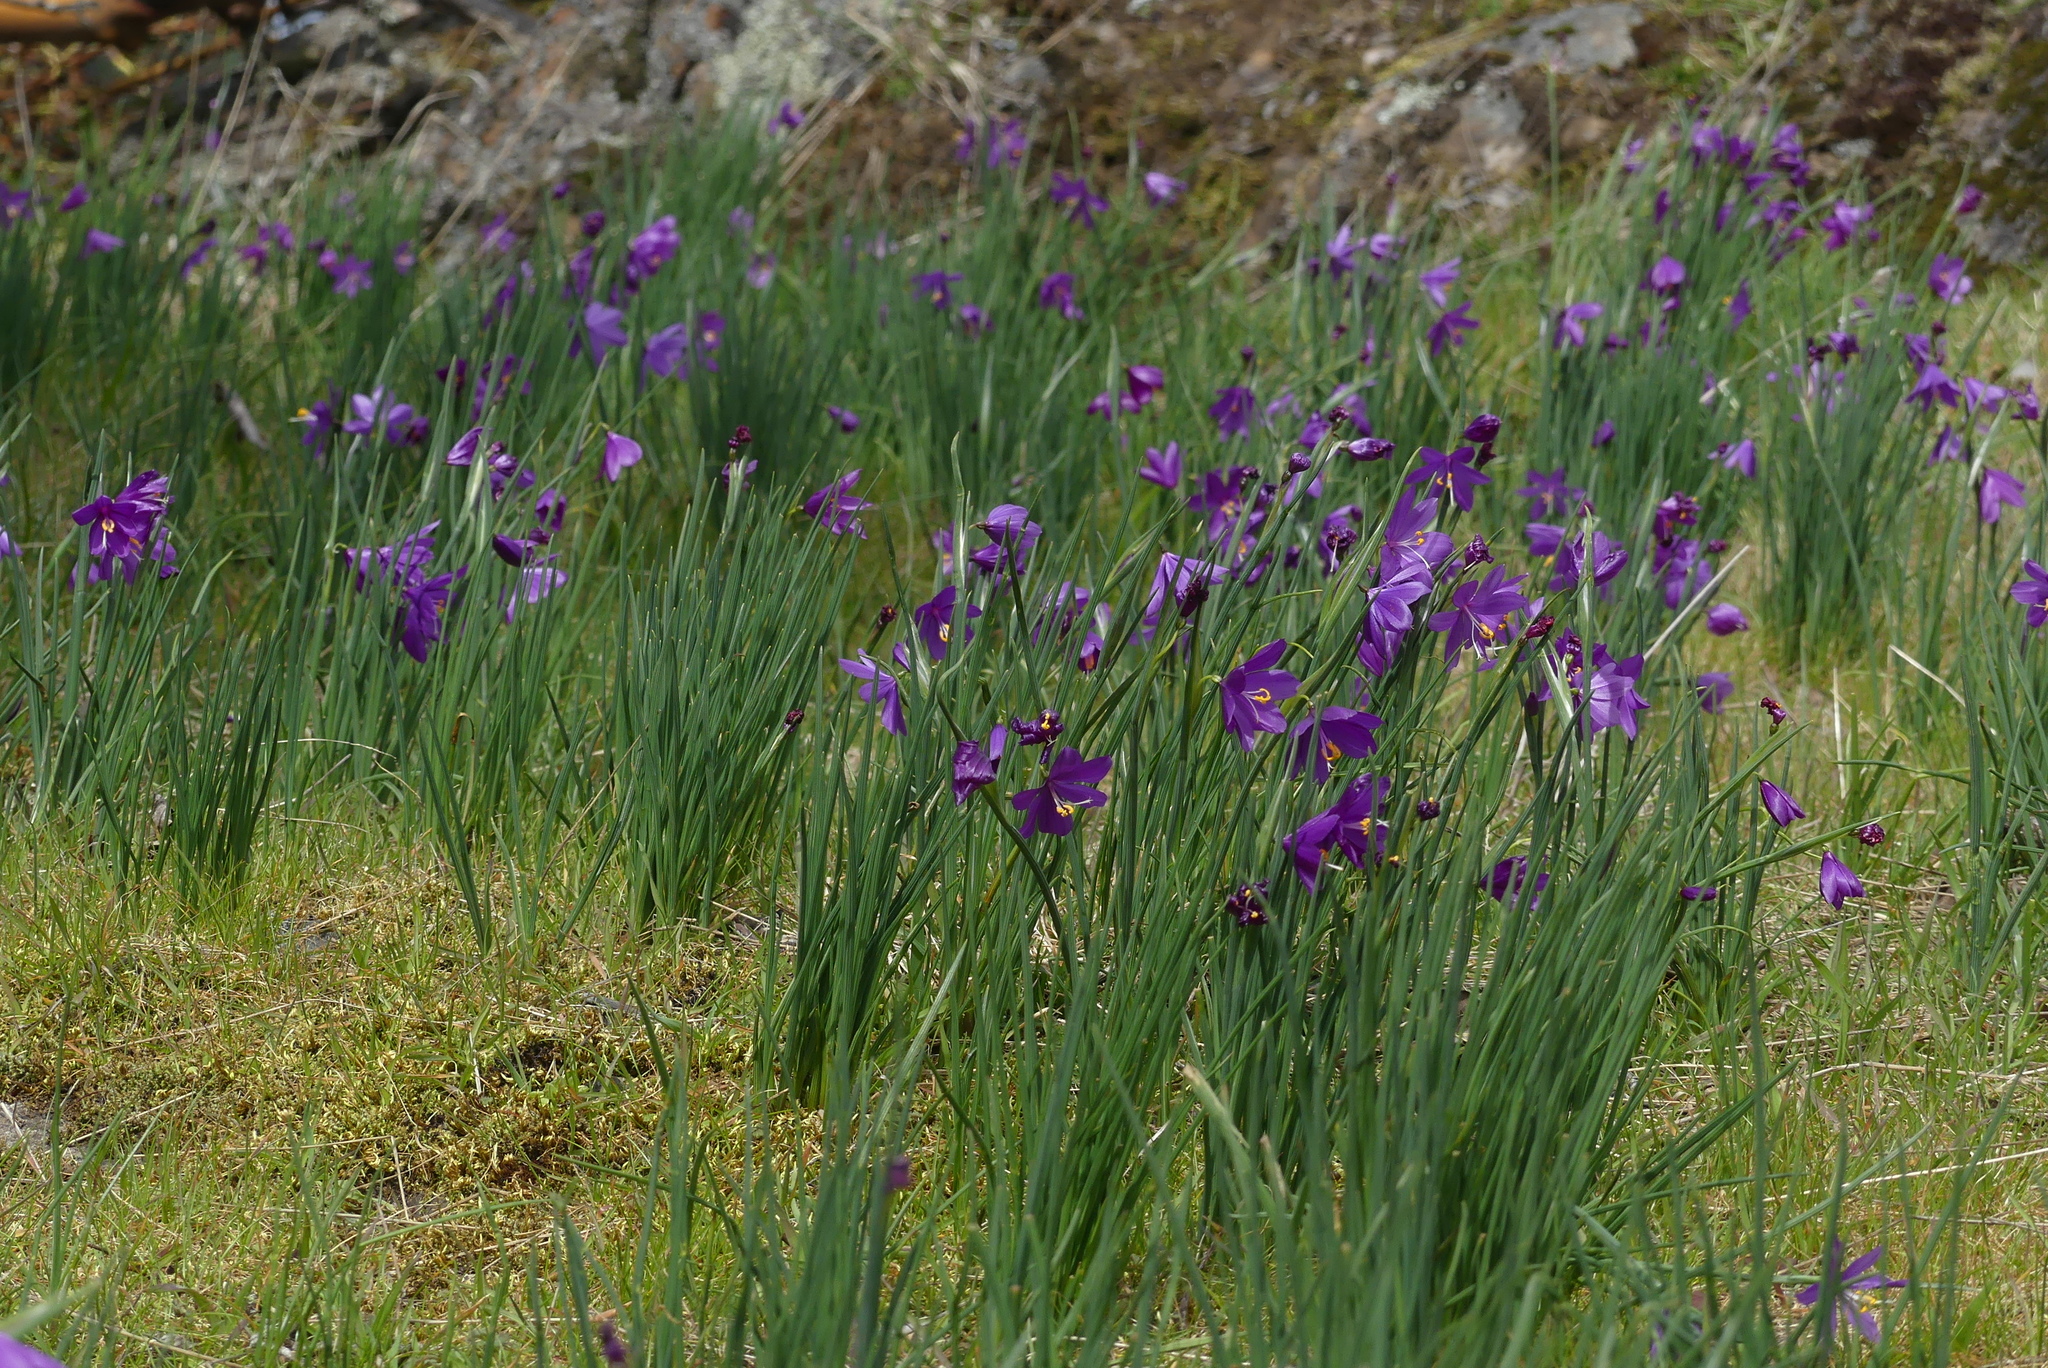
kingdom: Plantae
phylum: Tracheophyta
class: Liliopsida
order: Asparagales
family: Iridaceae
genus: Olsynium
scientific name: Olsynium douglasii
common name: Douglas' grasswidow
